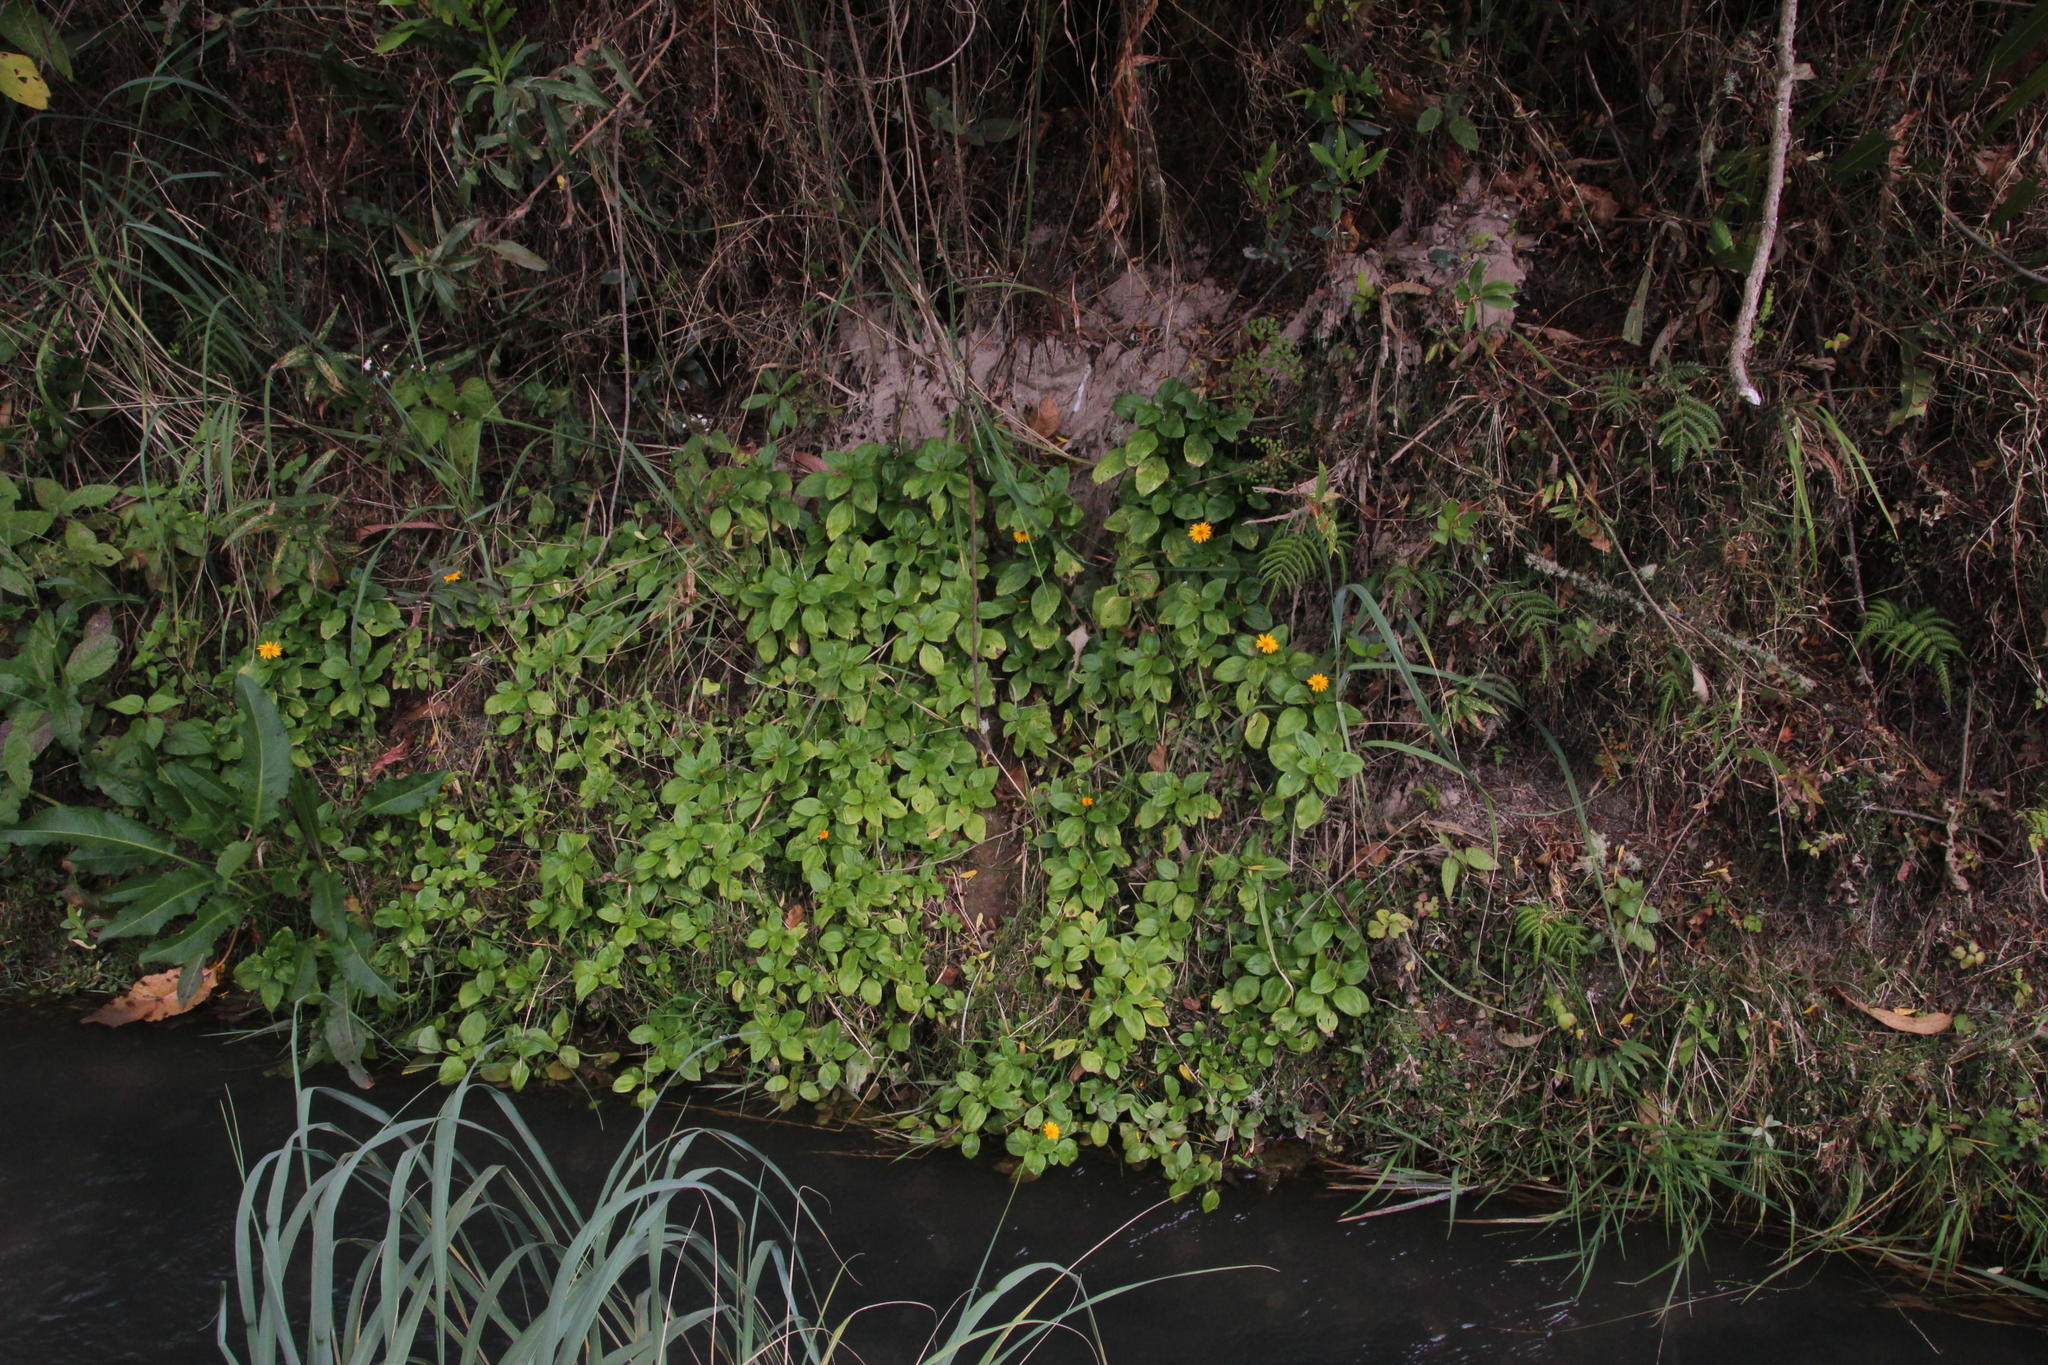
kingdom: Plantae
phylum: Tracheophyta
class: Magnoliopsida
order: Asterales
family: Asteraceae
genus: Philoglossa
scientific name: Philoglossa mimuloides
